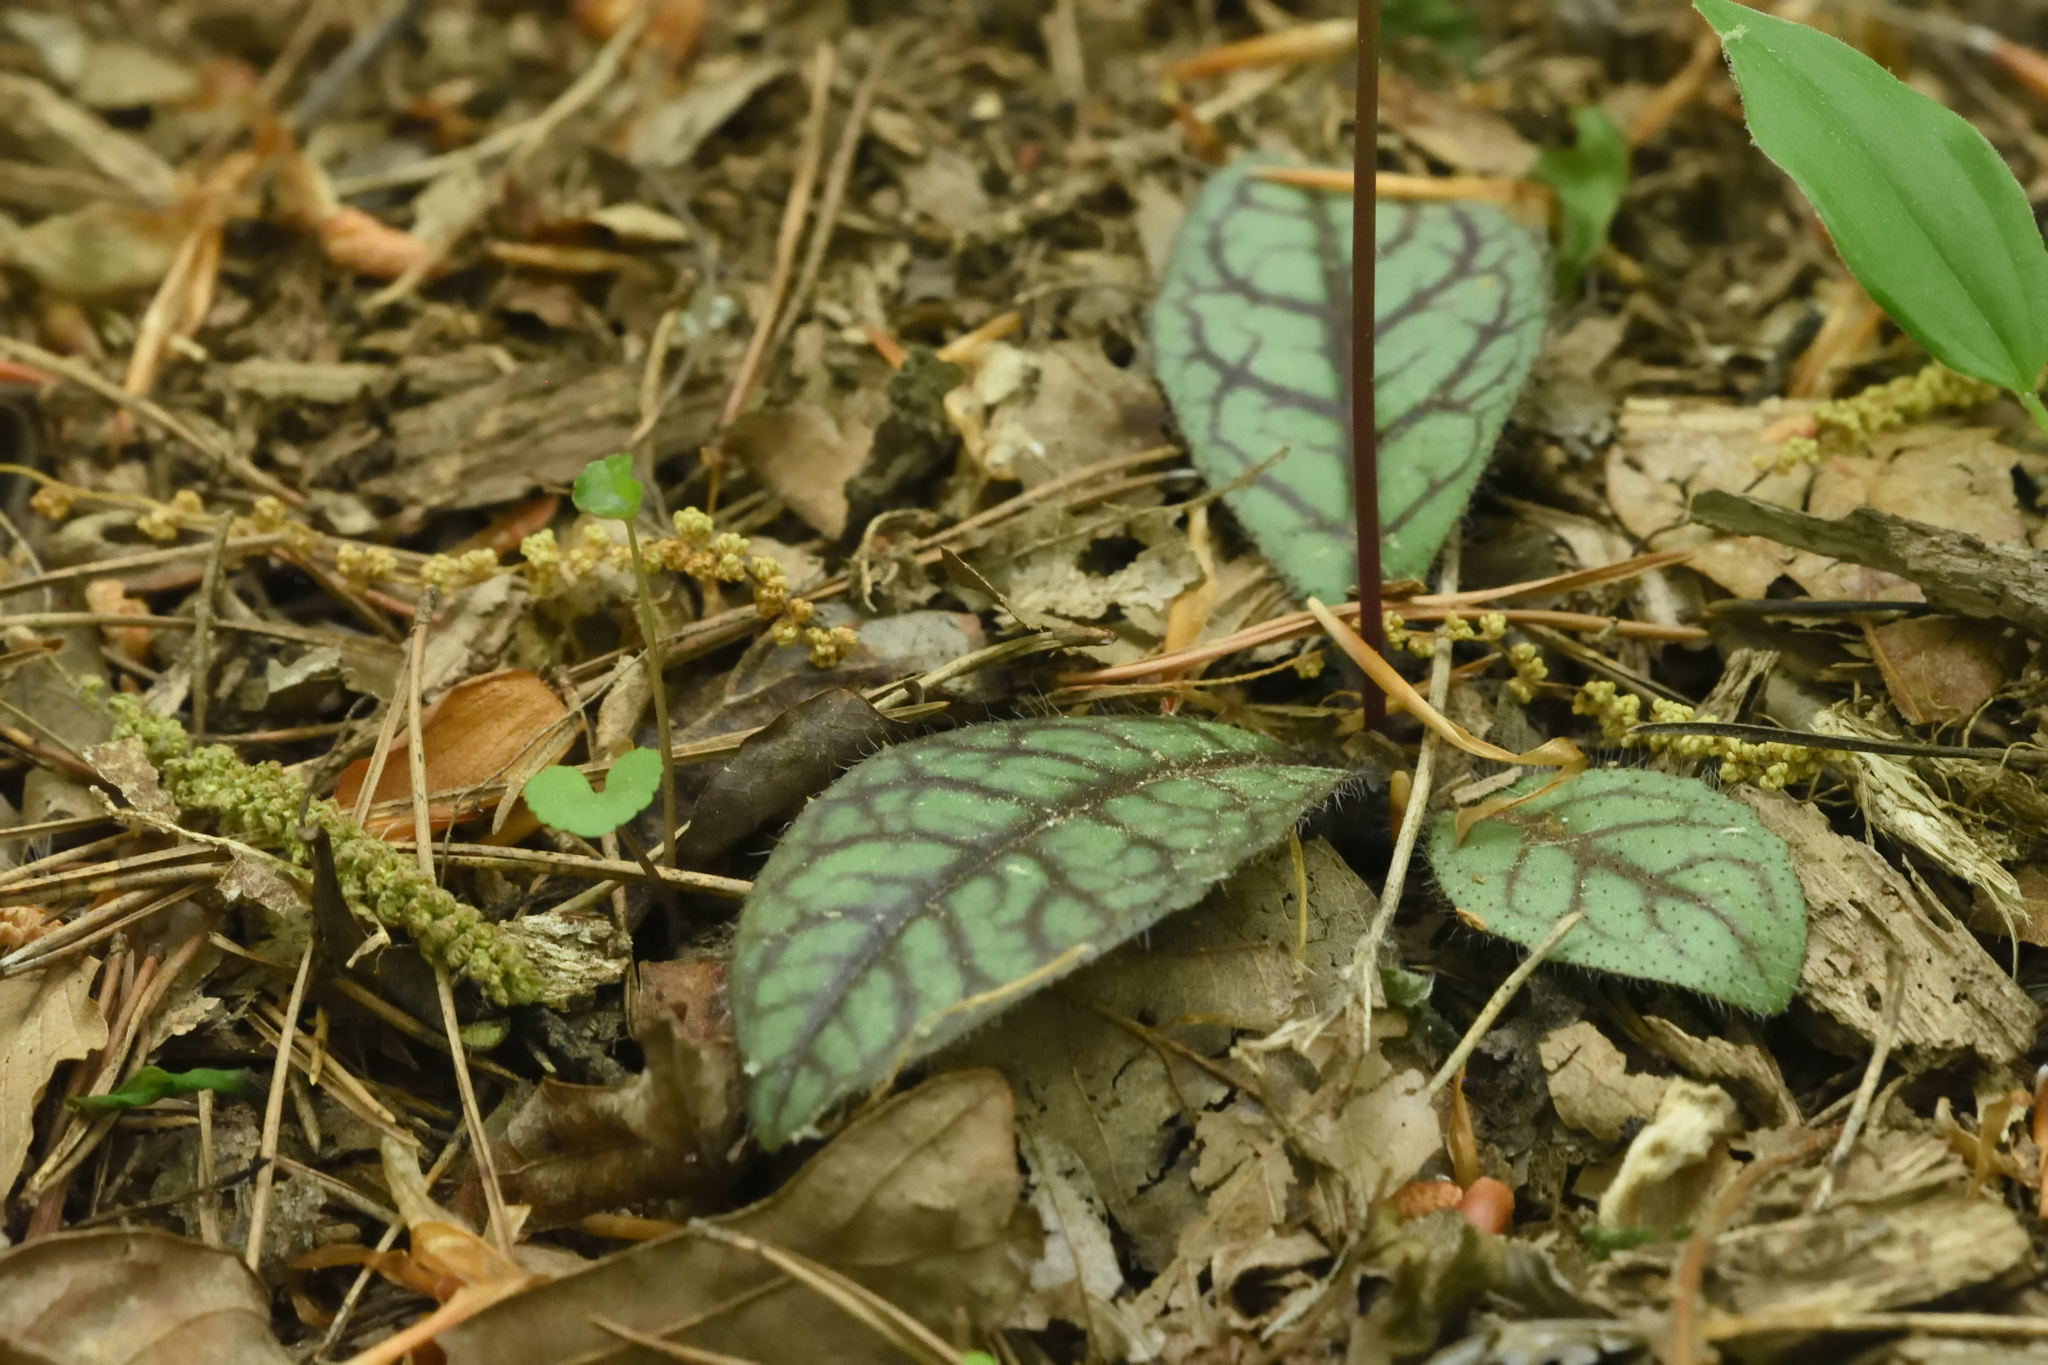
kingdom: Plantae
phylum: Tracheophyta
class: Magnoliopsida
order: Asterales
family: Asteraceae
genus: Hieracium
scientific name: Hieracium venosum
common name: Rattlesnake hawkweed
